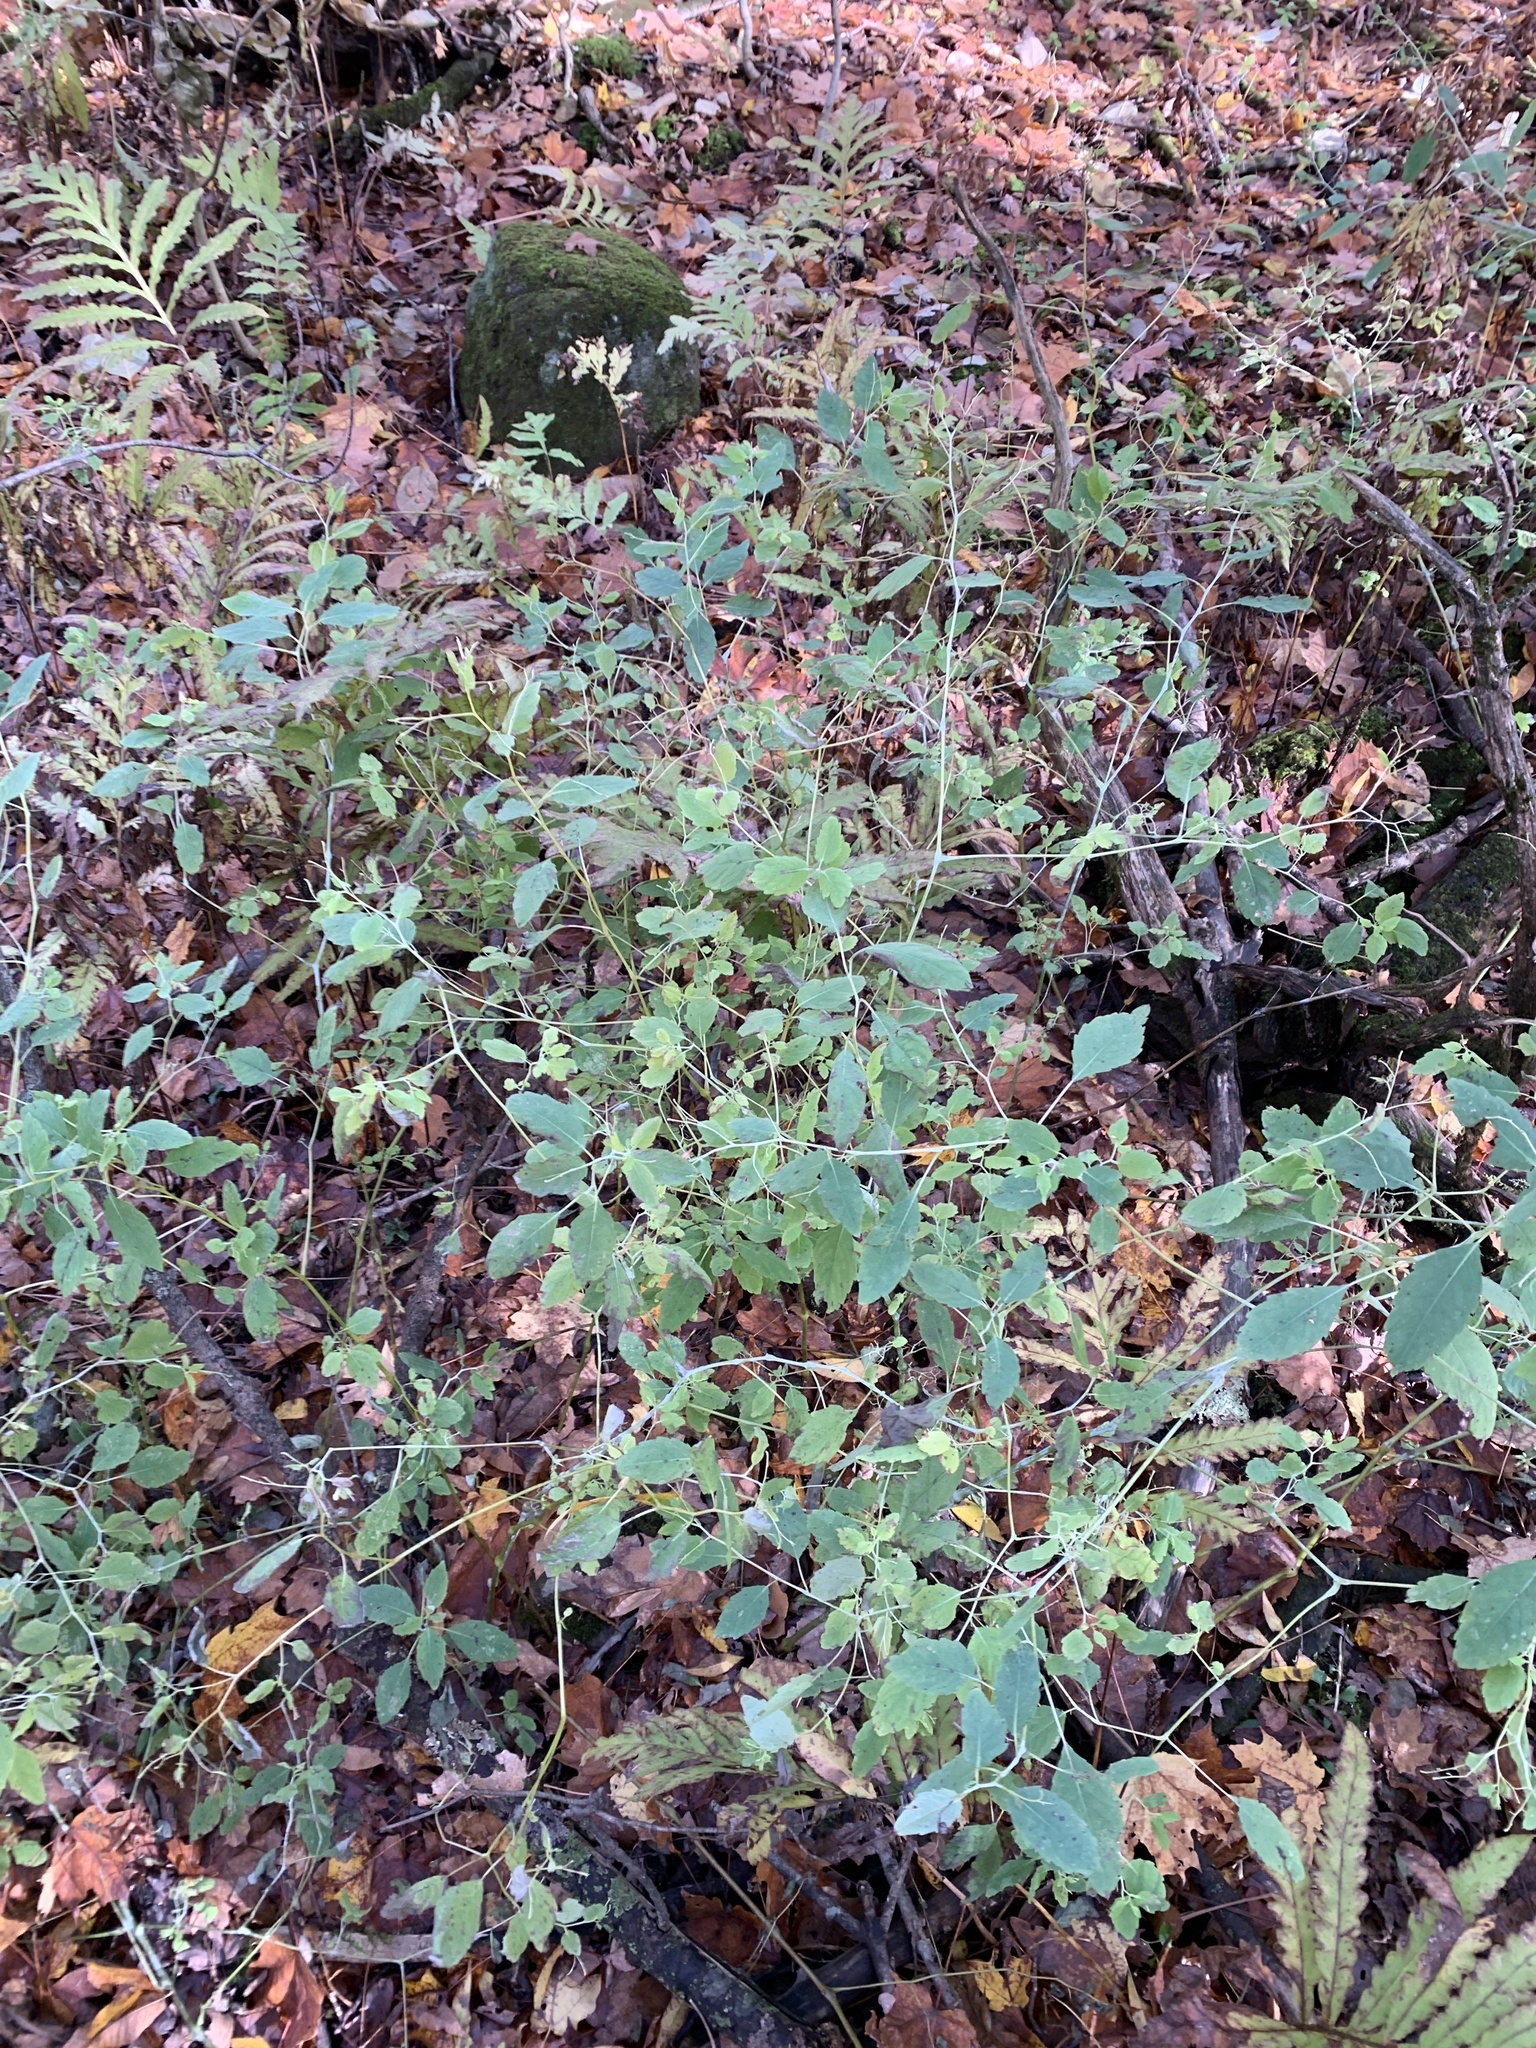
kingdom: Plantae
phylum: Tracheophyta
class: Magnoliopsida
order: Ericales
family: Balsaminaceae
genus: Impatiens
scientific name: Impatiens capensis
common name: Orange balsam
